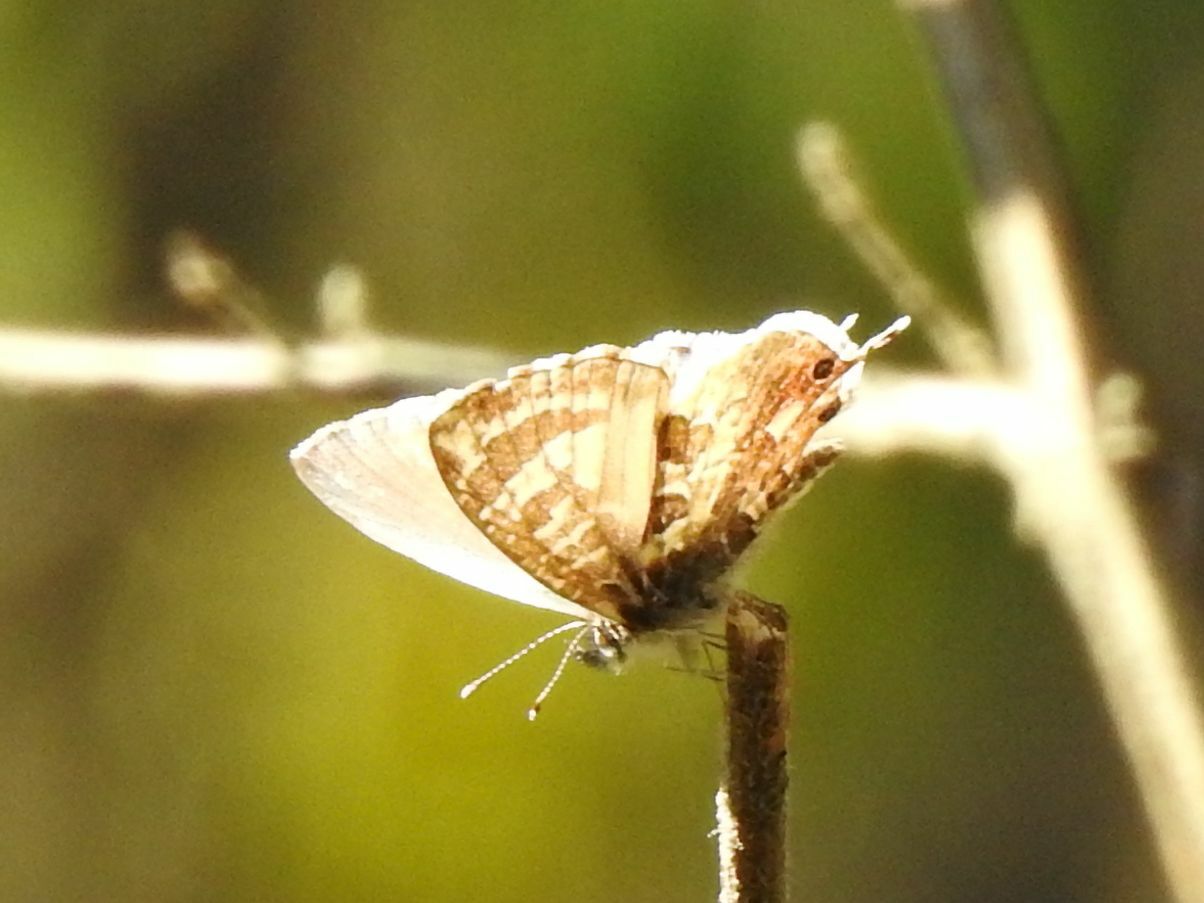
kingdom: Animalia
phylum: Arthropoda
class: Insecta
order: Lepidoptera
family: Lycaenidae
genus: Cacyreus
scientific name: Cacyreus lingeus
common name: Bush bronze
